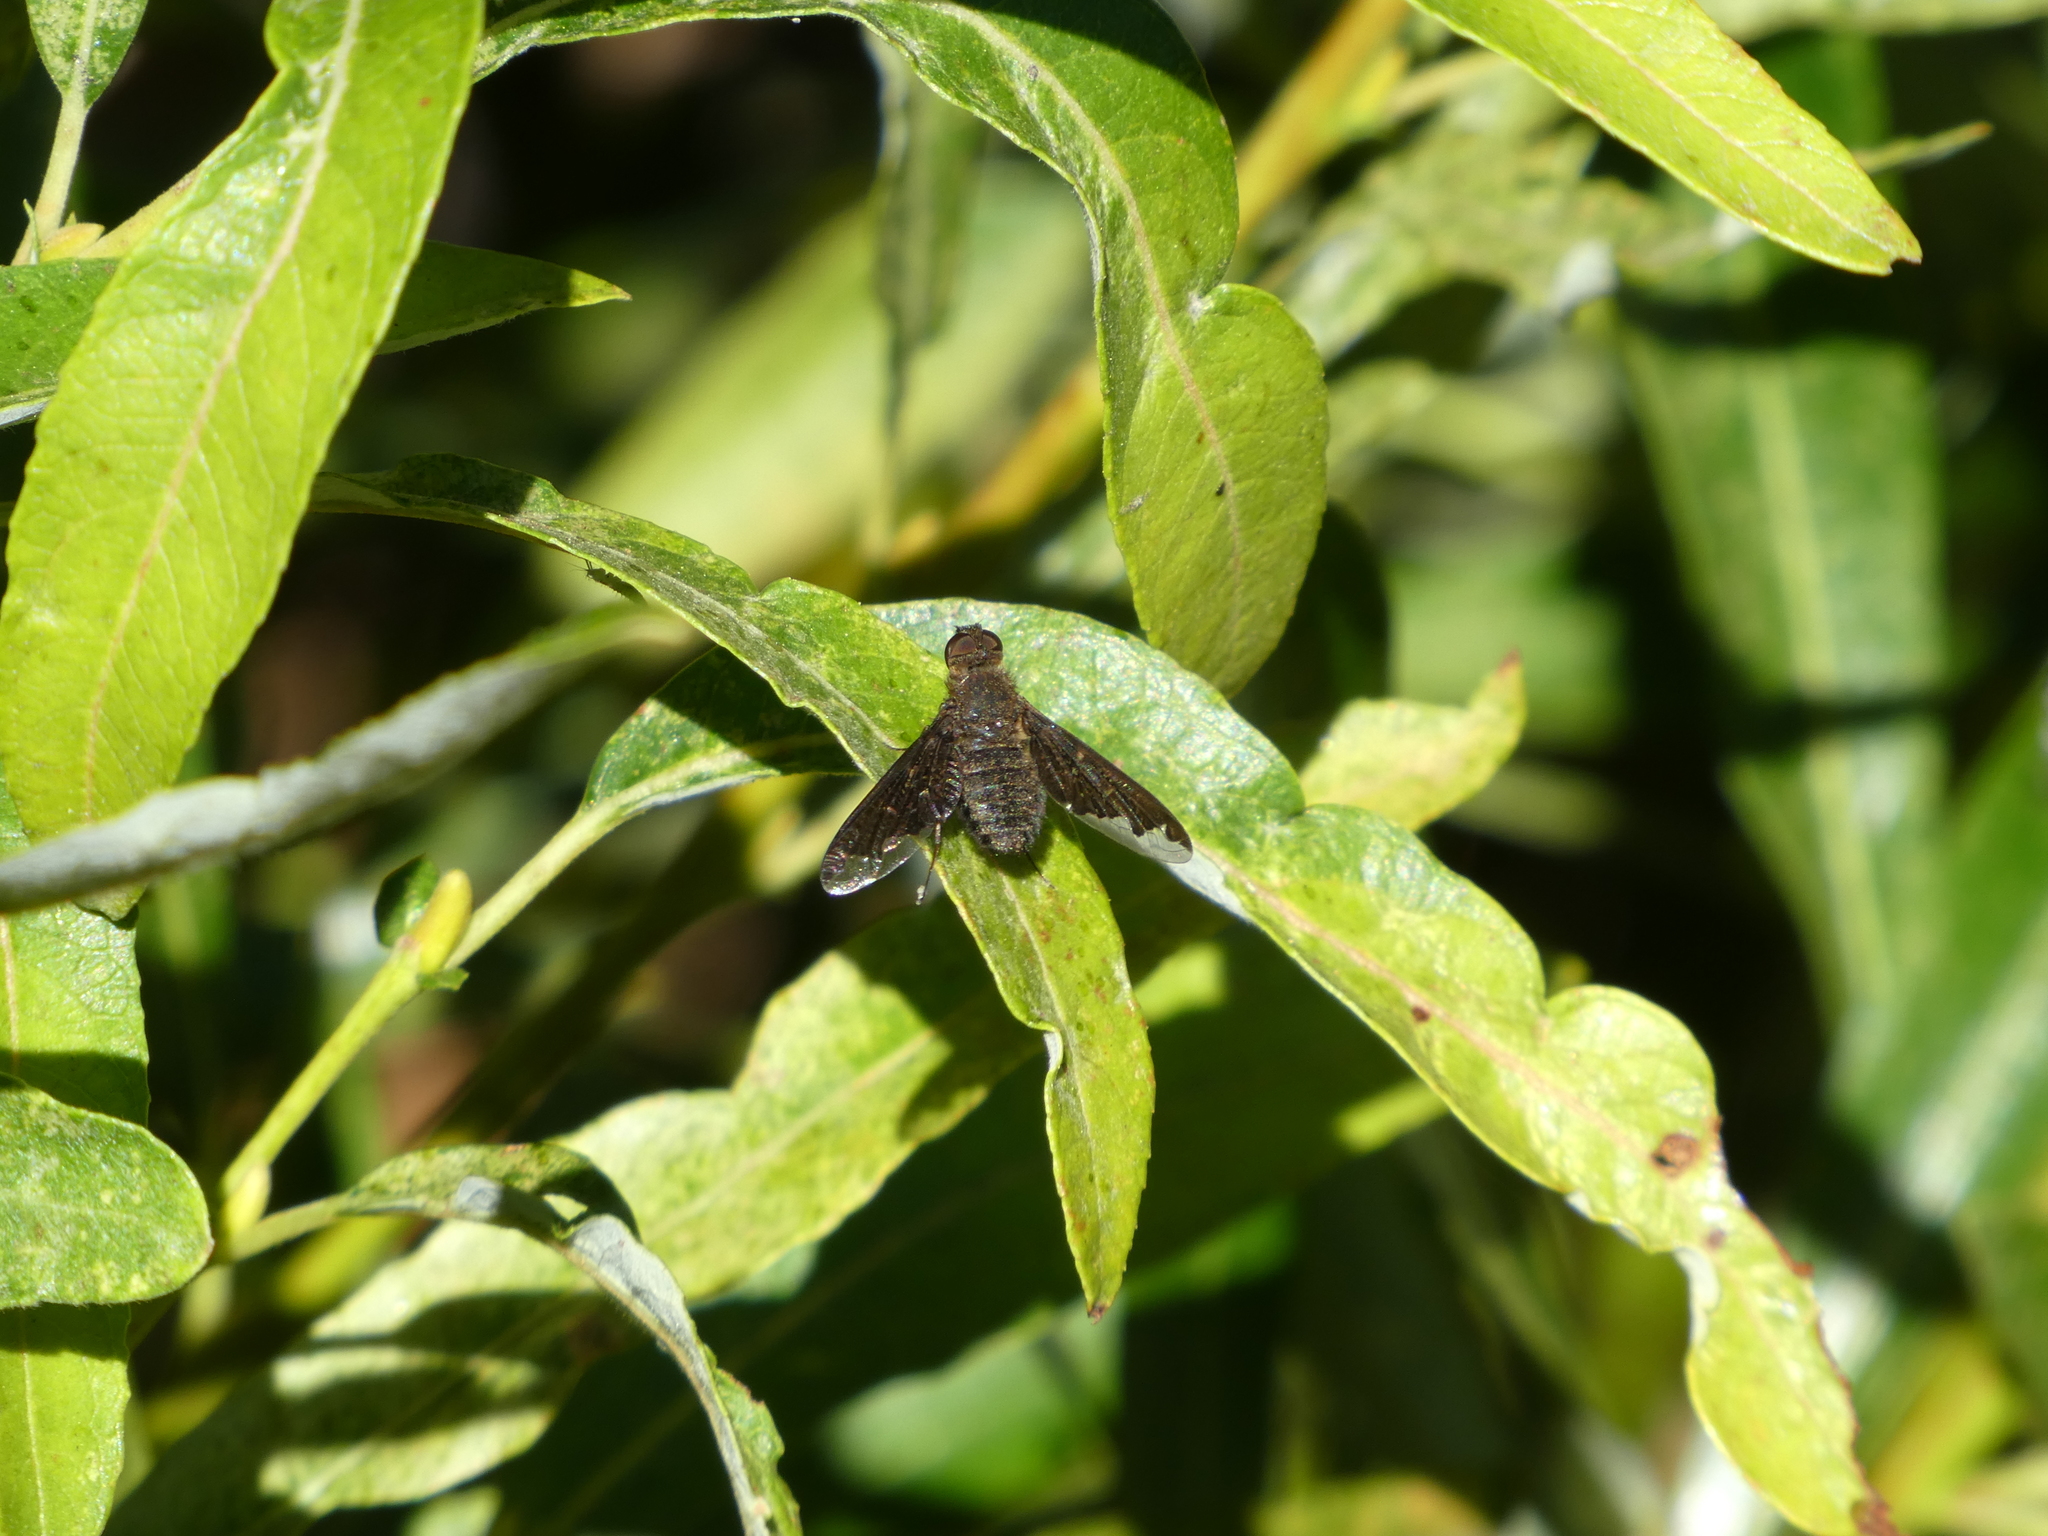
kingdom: Animalia
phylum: Arthropoda
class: Insecta
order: Diptera
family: Bombyliidae
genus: Hemipenthes
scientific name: Hemipenthes sinuosus
